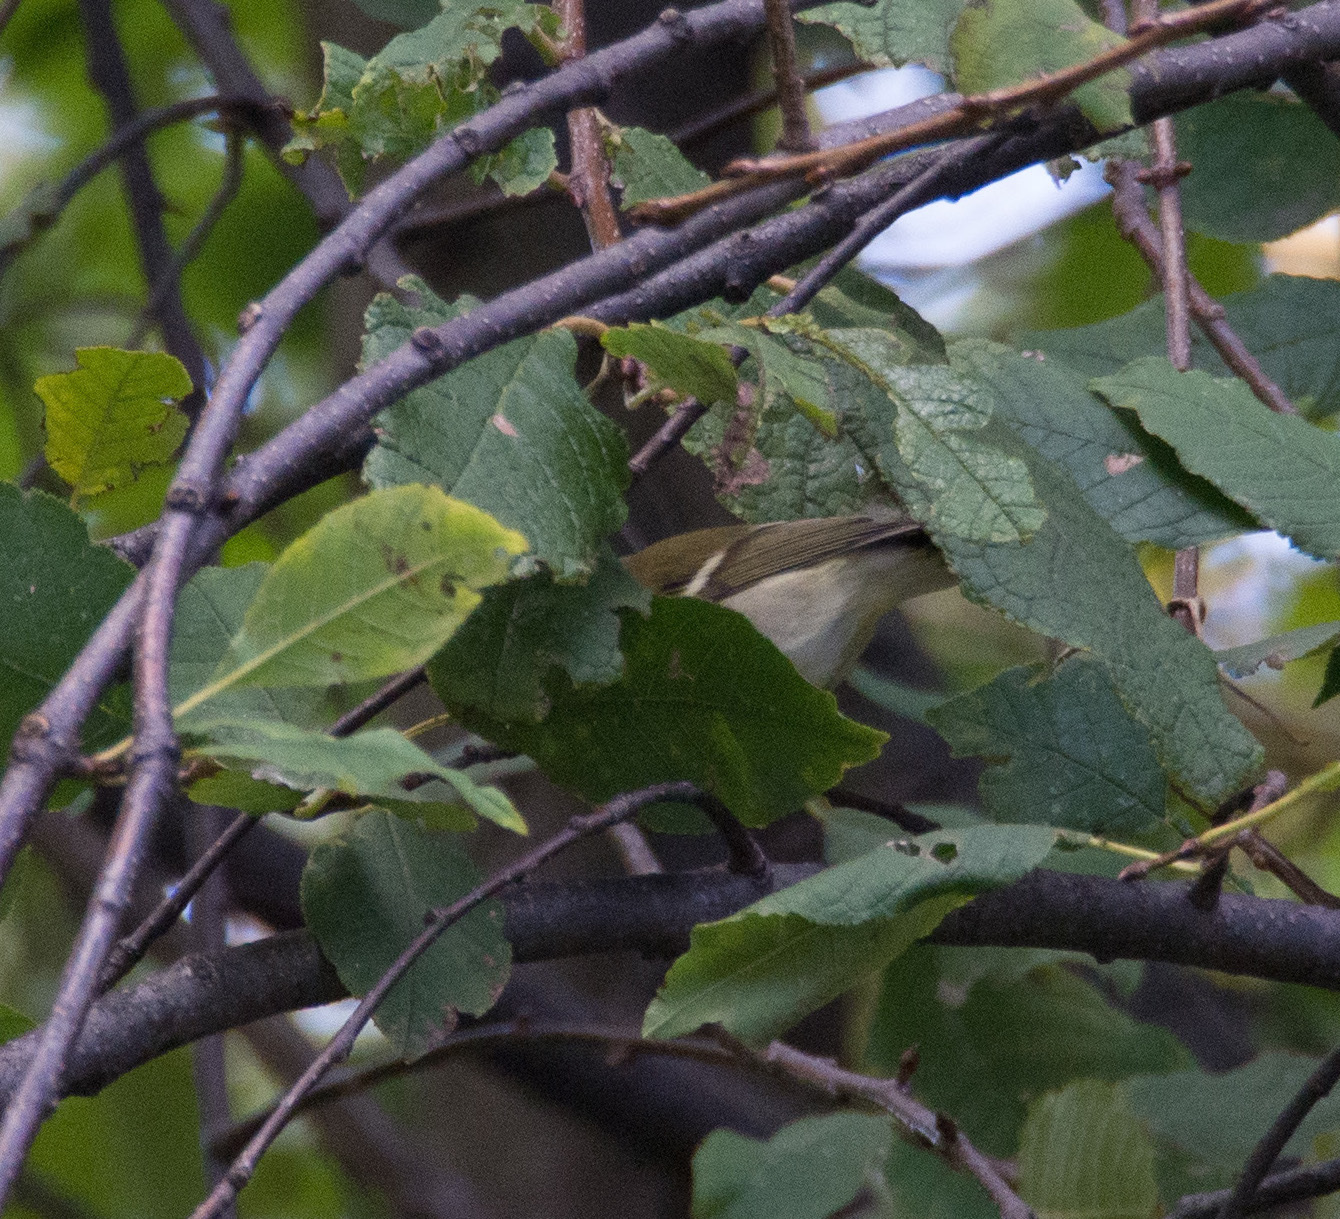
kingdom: Animalia
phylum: Chordata
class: Aves
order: Passeriformes
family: Phylloscopidae
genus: Phylloscopus
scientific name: Phylloscopus inornatus
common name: Yellow-browed warbler
